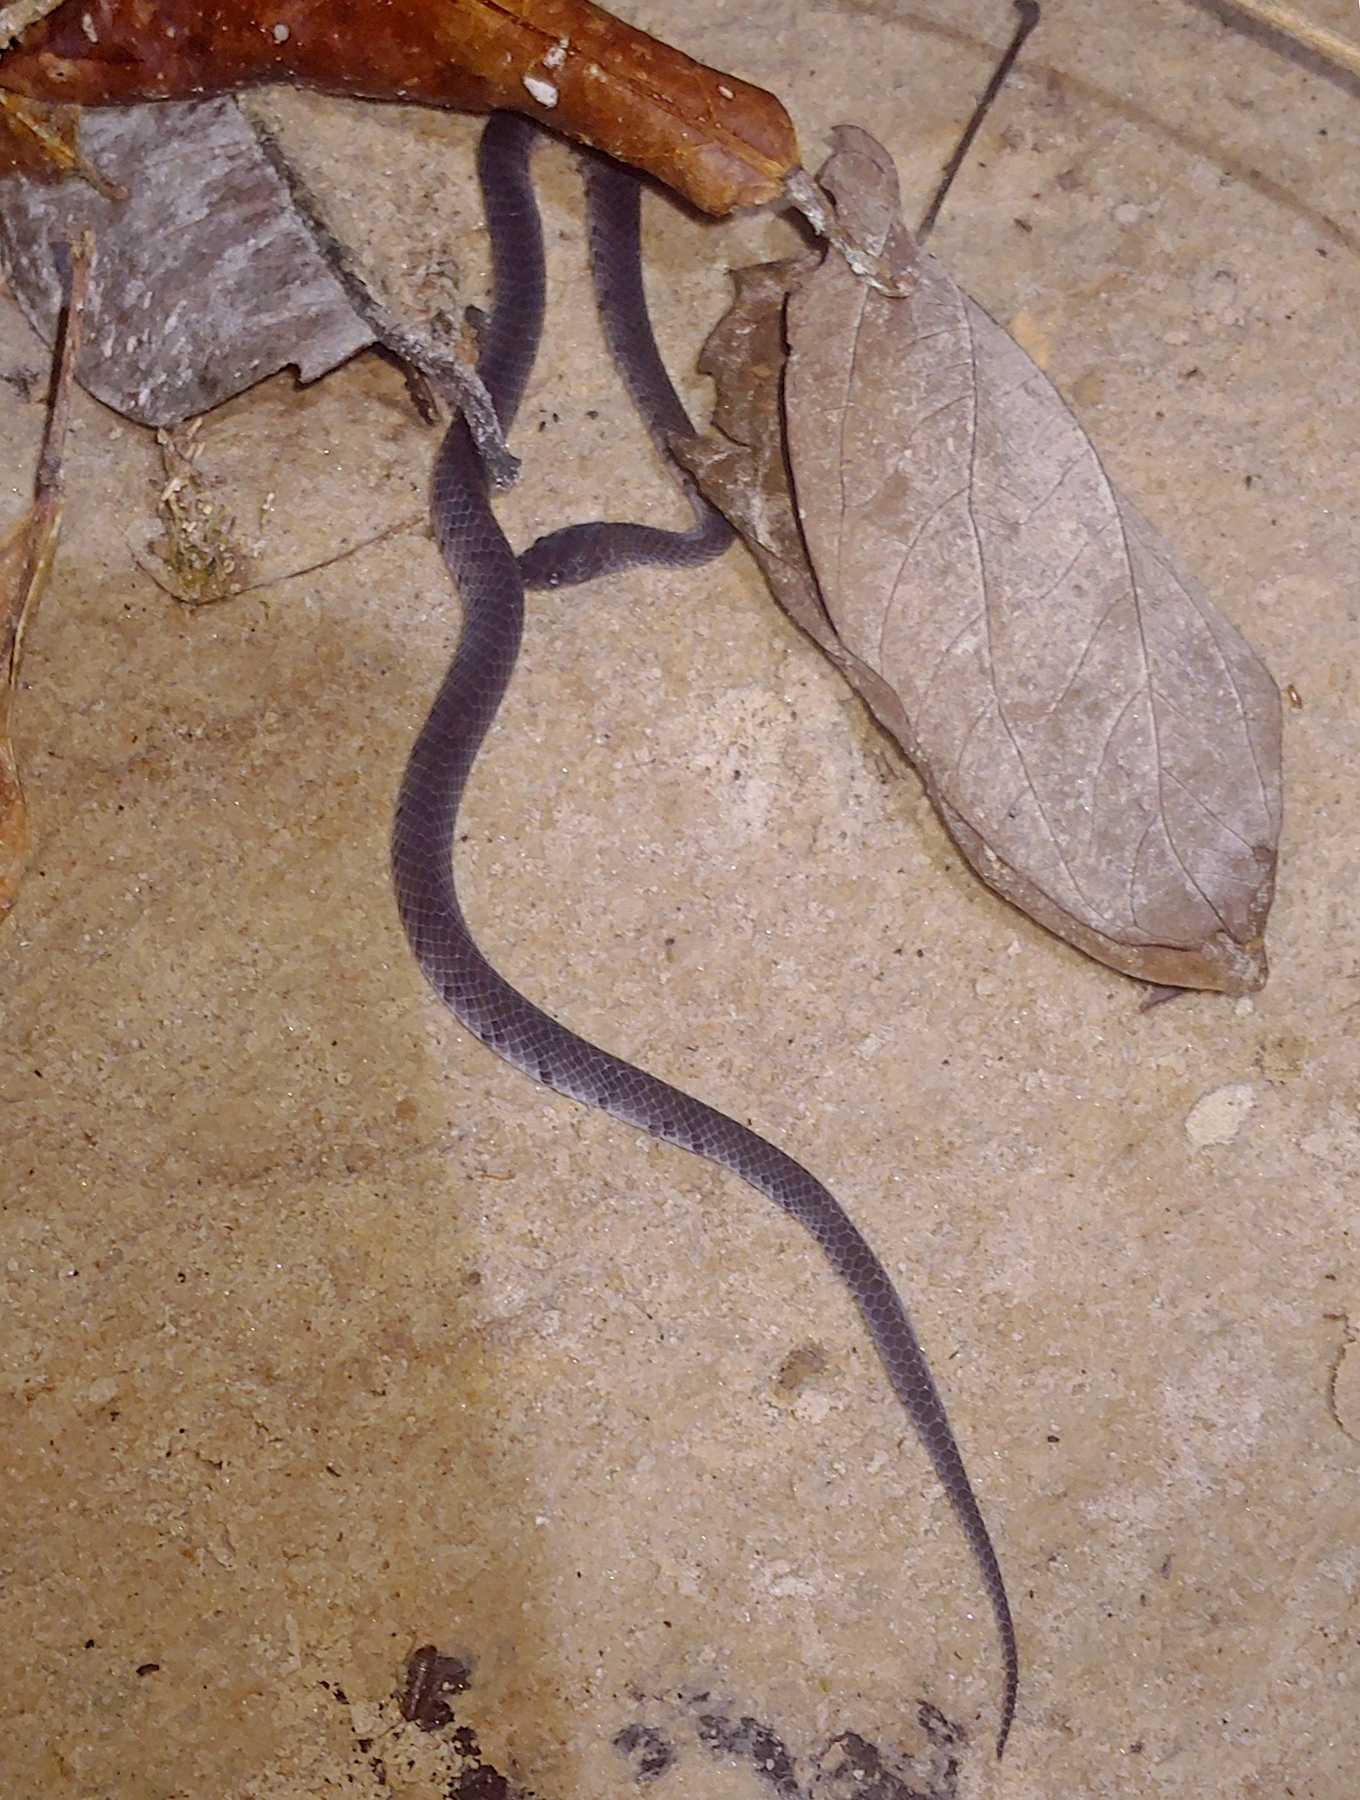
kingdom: Animalia
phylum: Chordata
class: Squamata
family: Pareidae
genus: Asthenodipsas
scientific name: Asthenodipsas laevis
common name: Smooth slug snake
